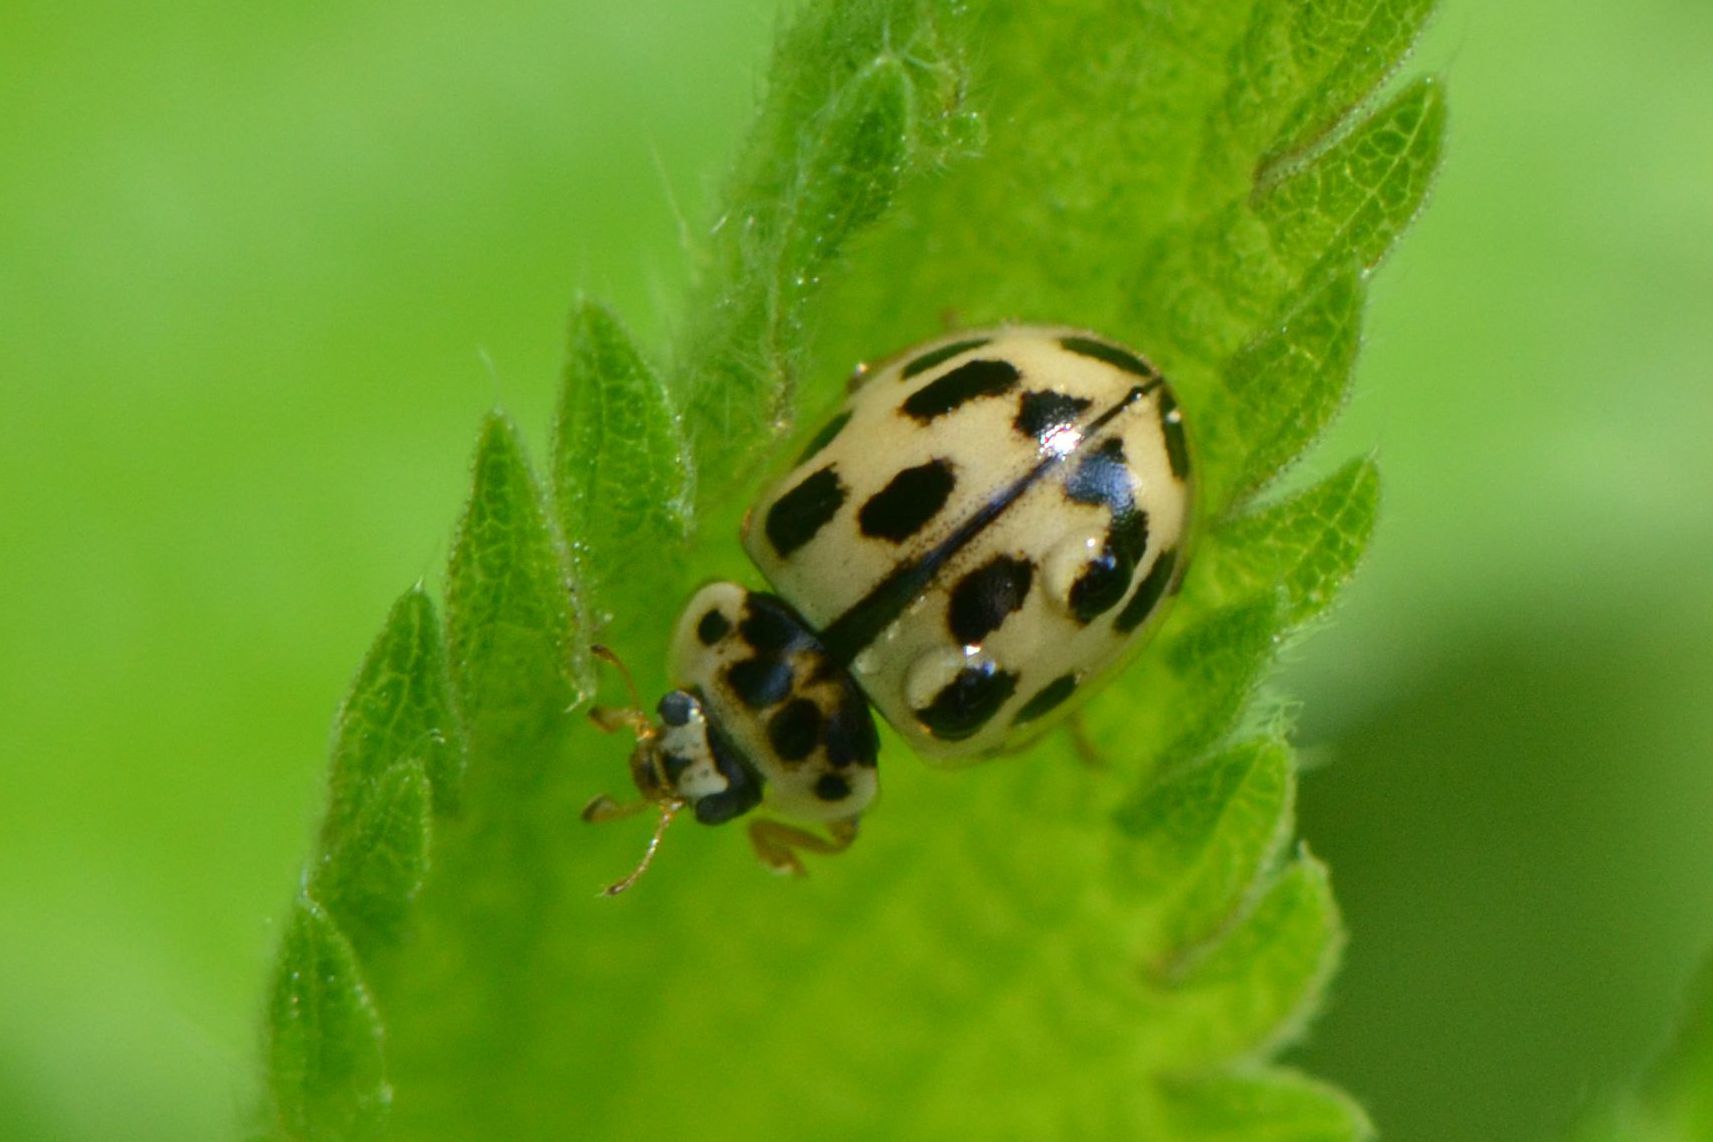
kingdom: Animalia
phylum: Arthropoda
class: Insecta
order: Coleoptera
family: Coccinellidae
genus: Propylaea
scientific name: Propylaea quatuordecimpunctata
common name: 14-spotted ladybird beetle
